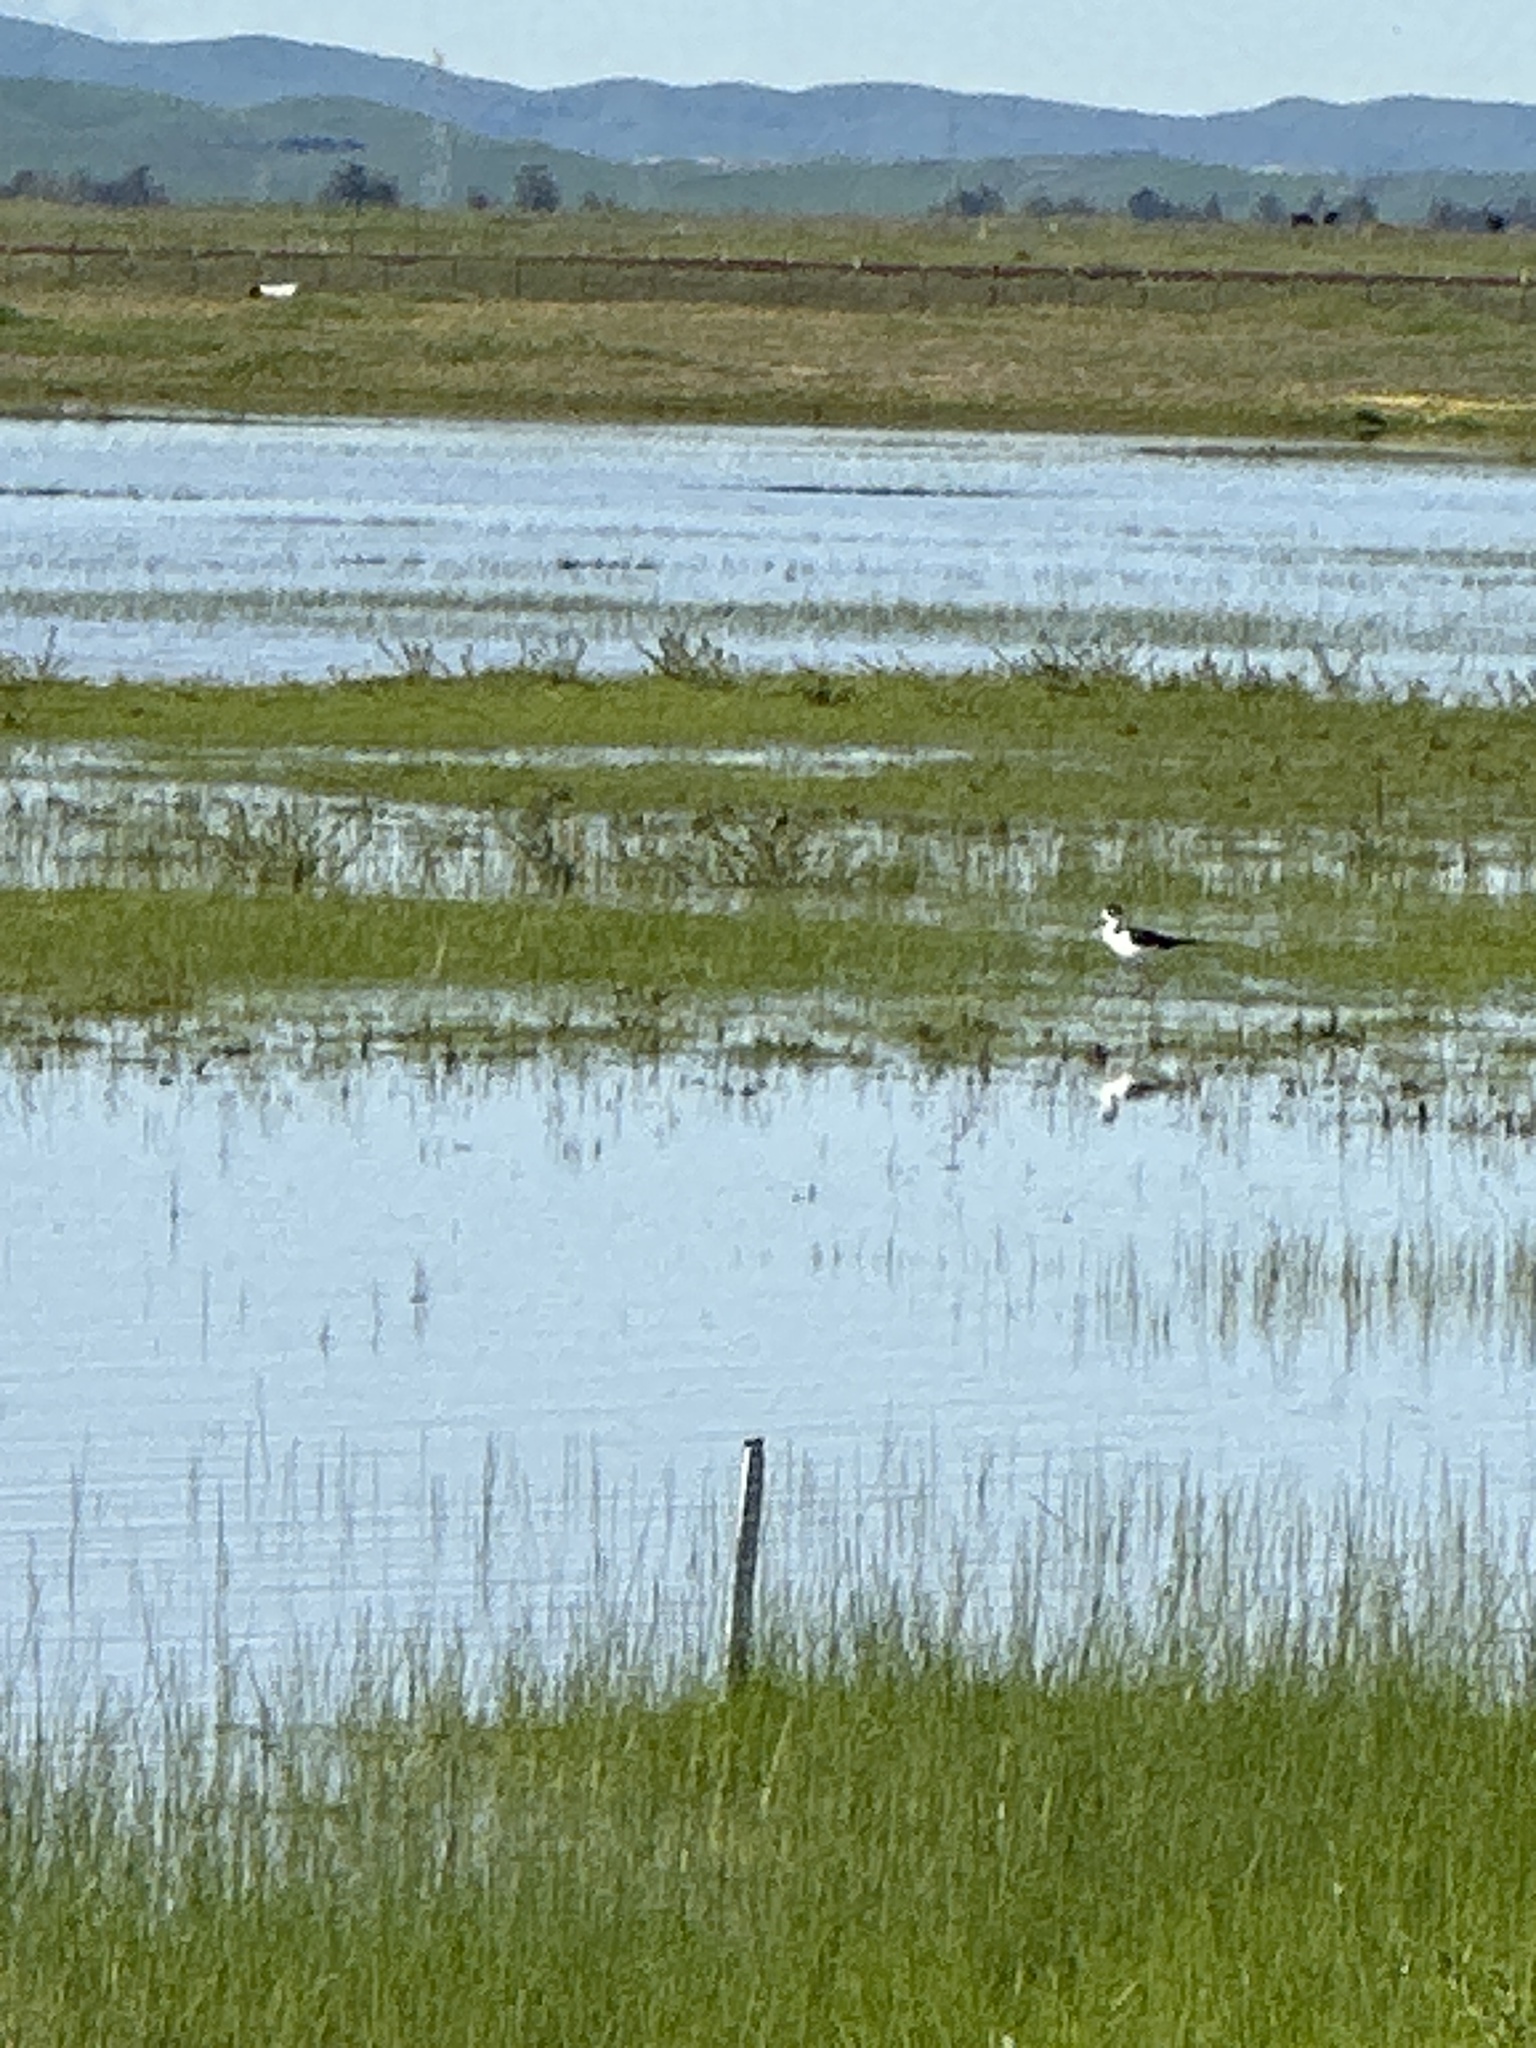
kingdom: Animalia
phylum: Chordata
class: Aves
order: Charadriiformes
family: Recurvirostridae
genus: Himantopus
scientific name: Himantopus mexicanus
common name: Black-necked stilt
